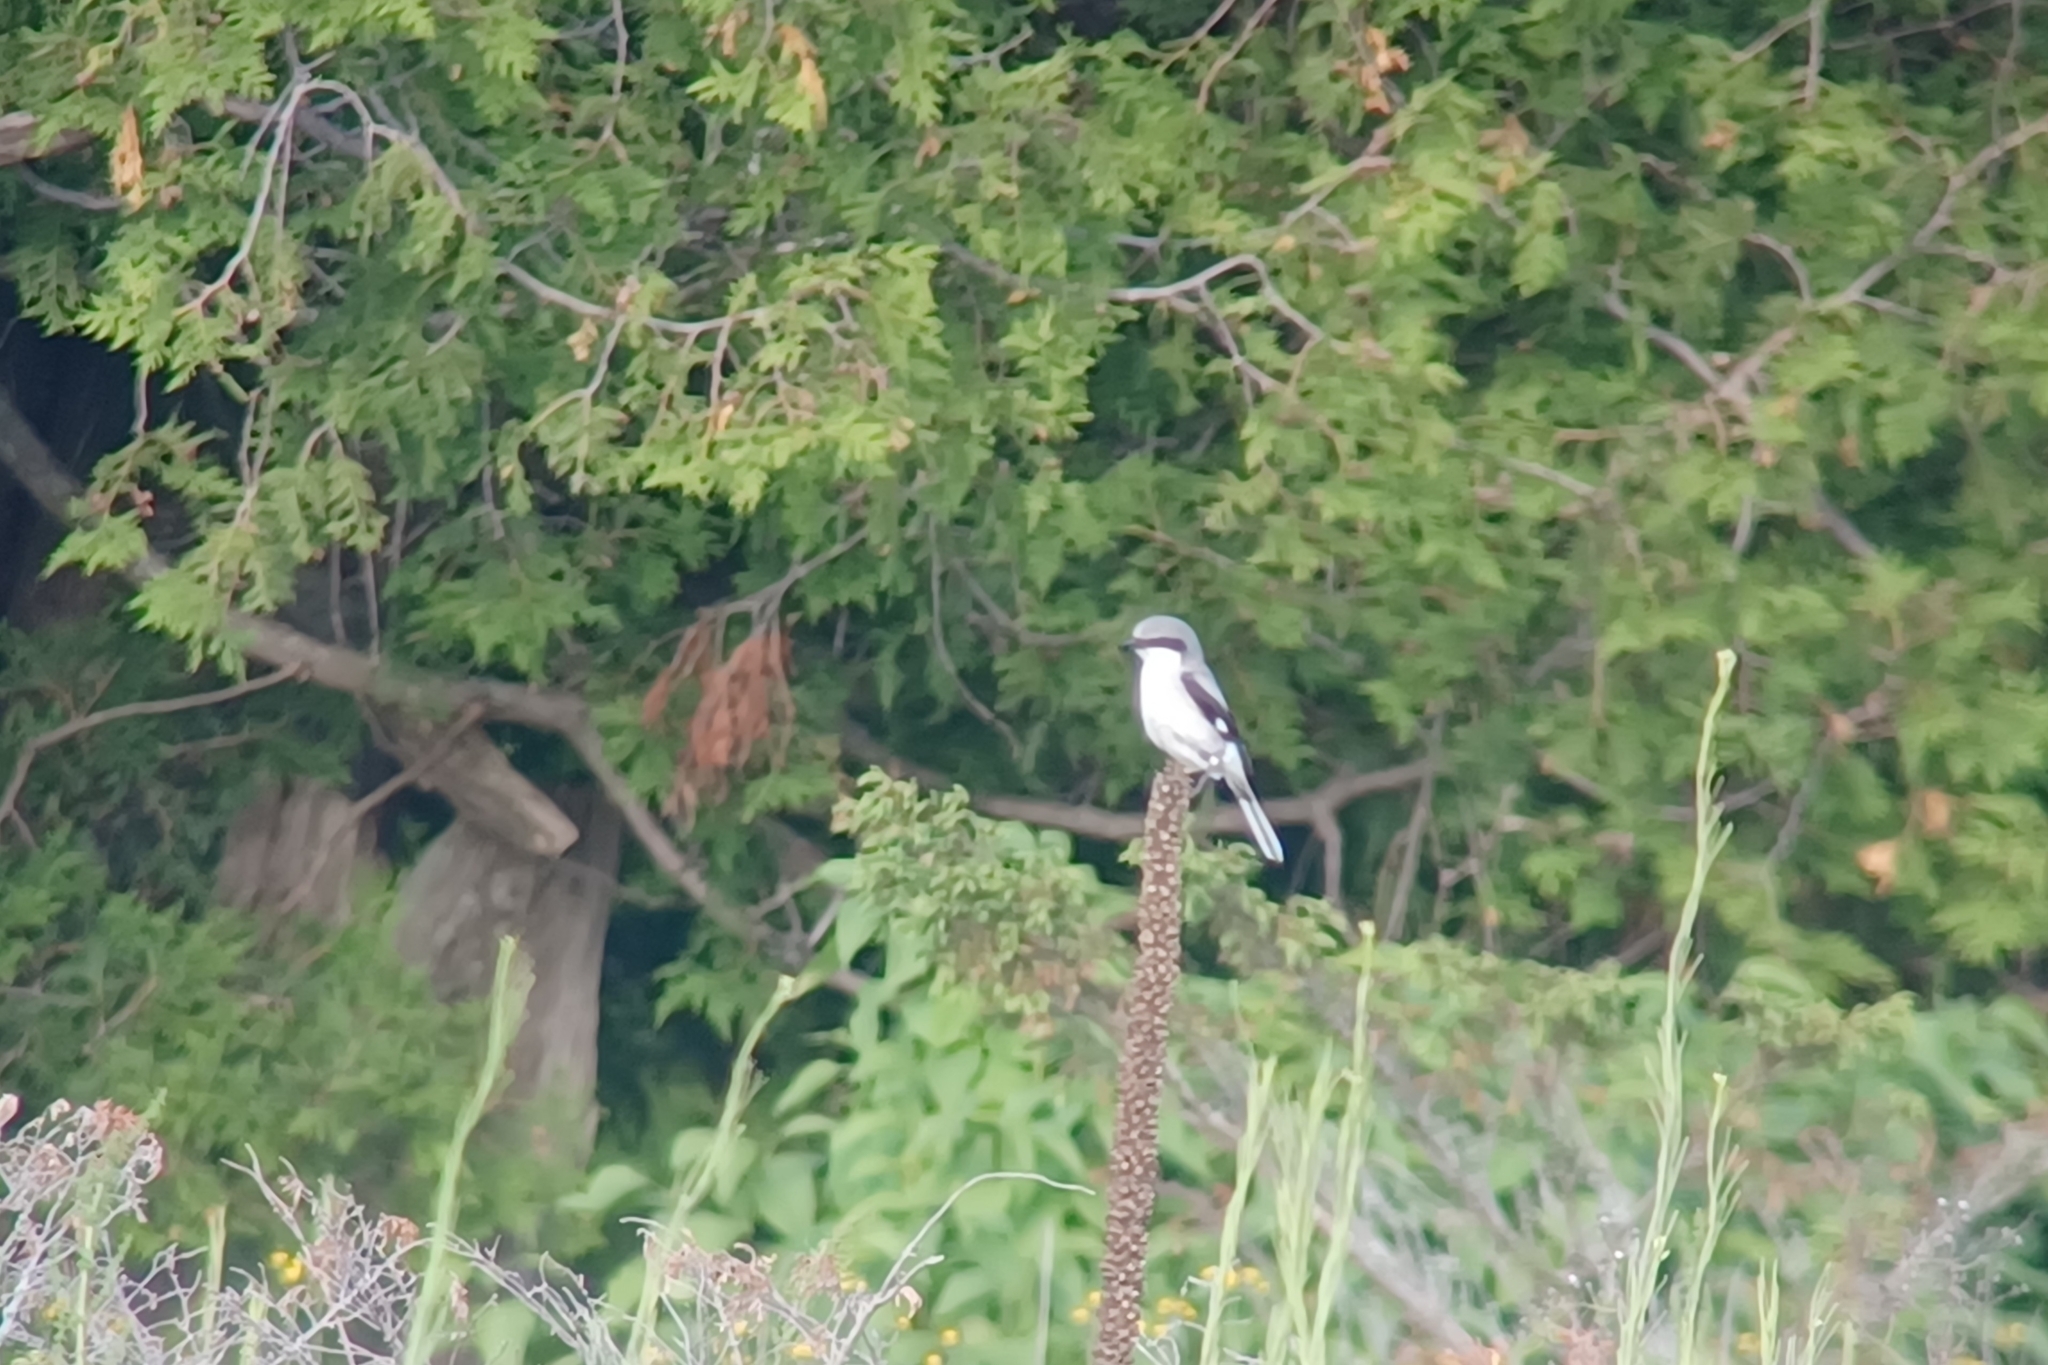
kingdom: Animalia
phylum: Chordata
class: Aves
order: Passeriformes
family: Laniidae
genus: Lanius
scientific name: Lanius ludovicianus
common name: Loggerhead shrike
